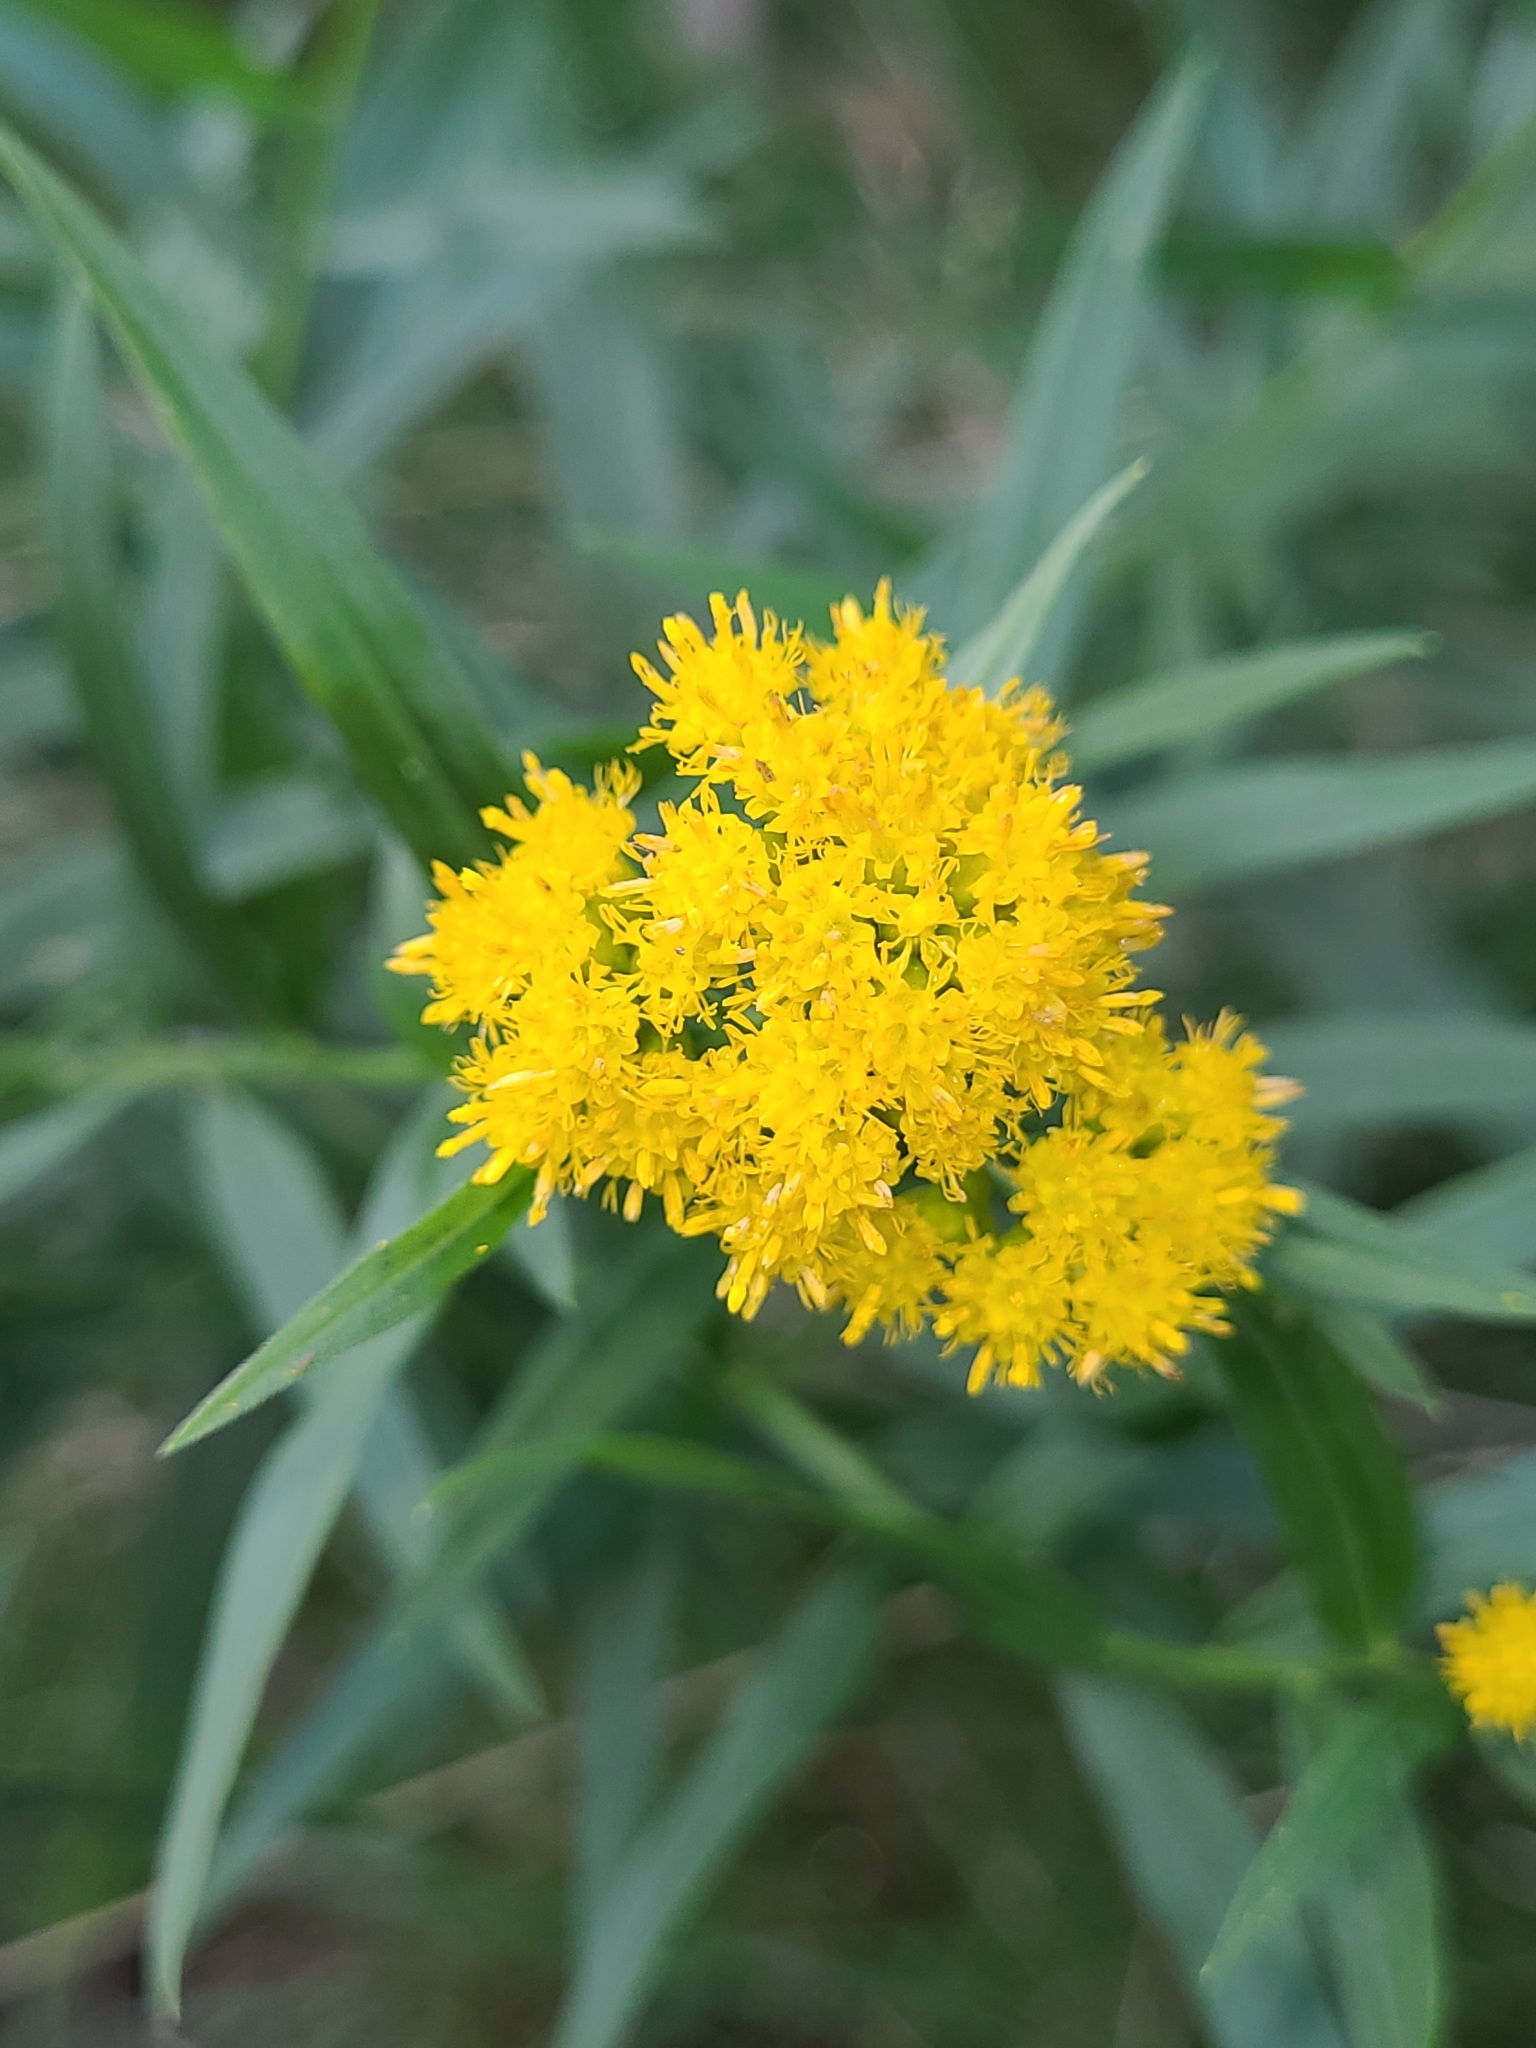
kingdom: Plantae
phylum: Tracheophyta
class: Magnoliopsida
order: Asterales
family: Asteraceae
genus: Euthamia
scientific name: Euthamia graminifolia
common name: Common goldentop
